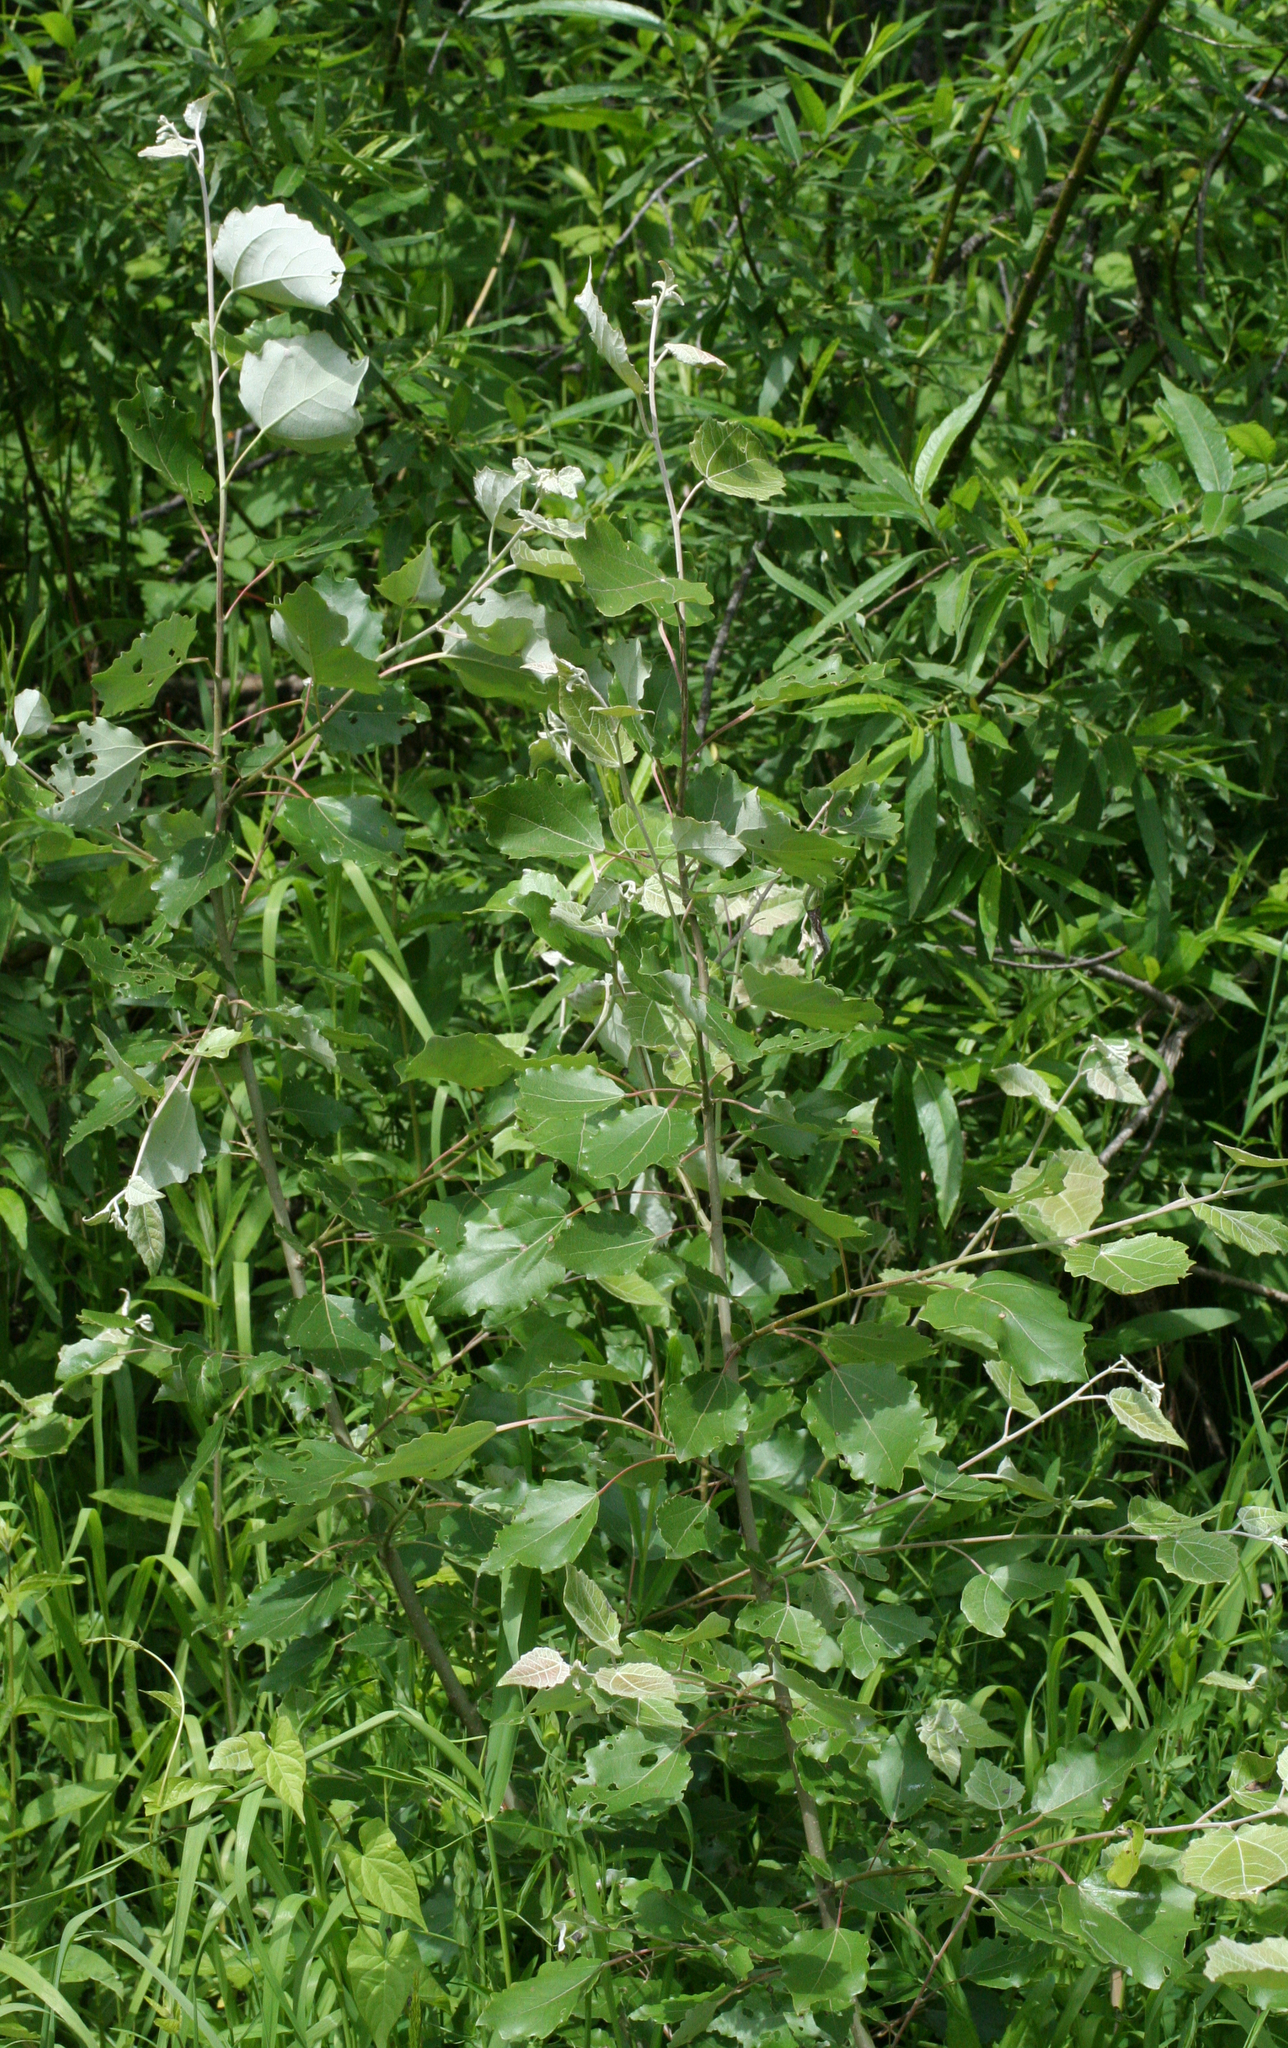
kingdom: Plantae
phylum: Tracheophyta
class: Magnoliopsida
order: Malpighiales
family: Salicaceae
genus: Populus
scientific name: Populus alba
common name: White poplar
